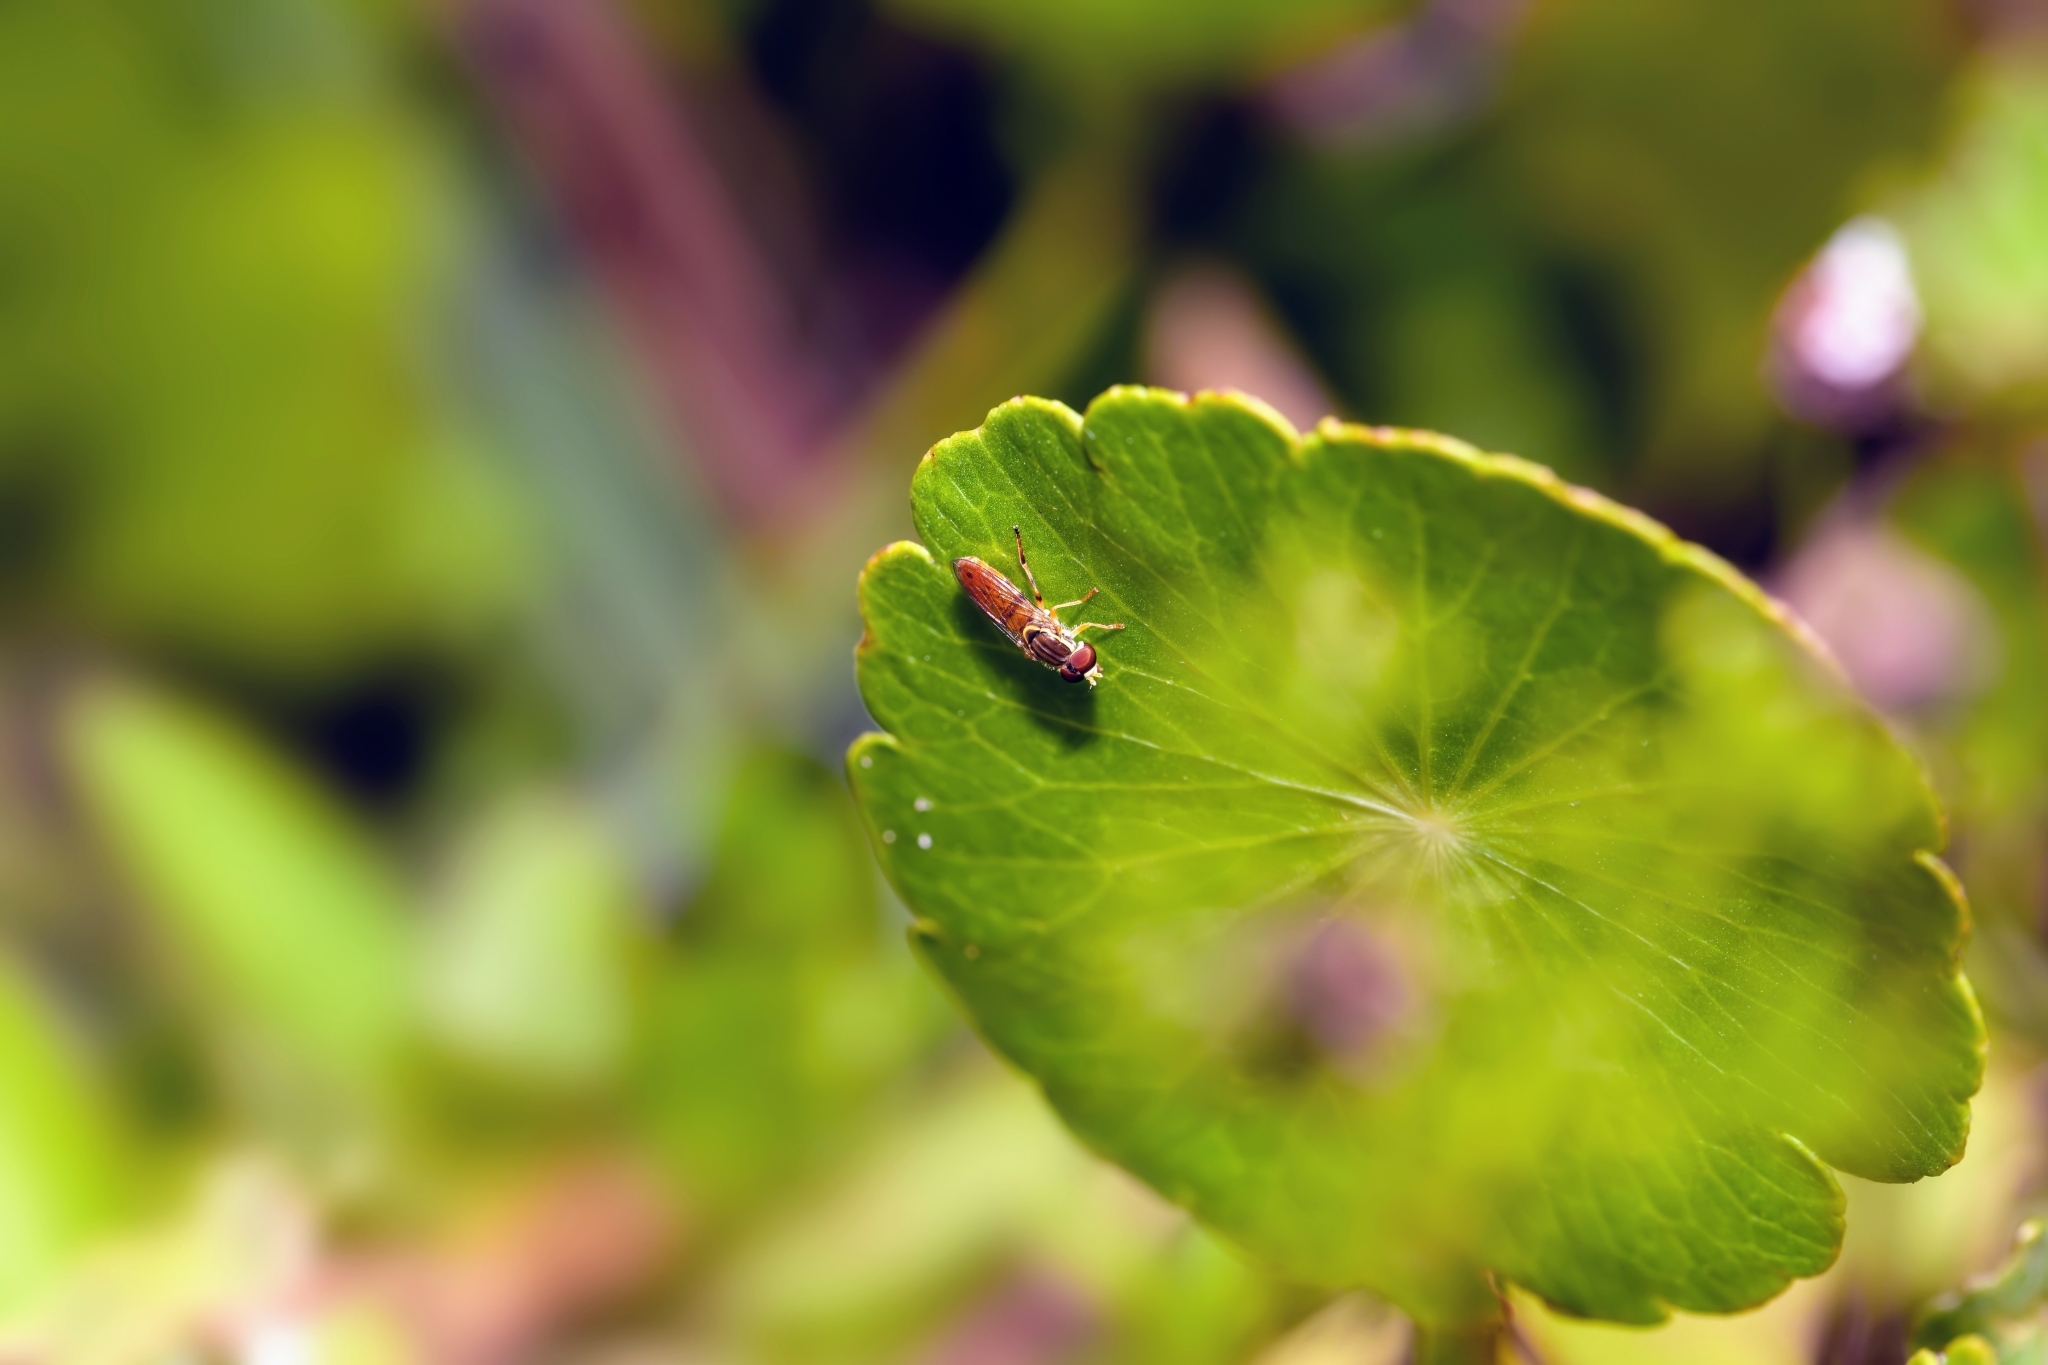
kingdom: Animalia
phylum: Arthropoda
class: Insecta
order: Diptera
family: Syrphidae
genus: Toxomerus
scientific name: Toxomerus floralis
